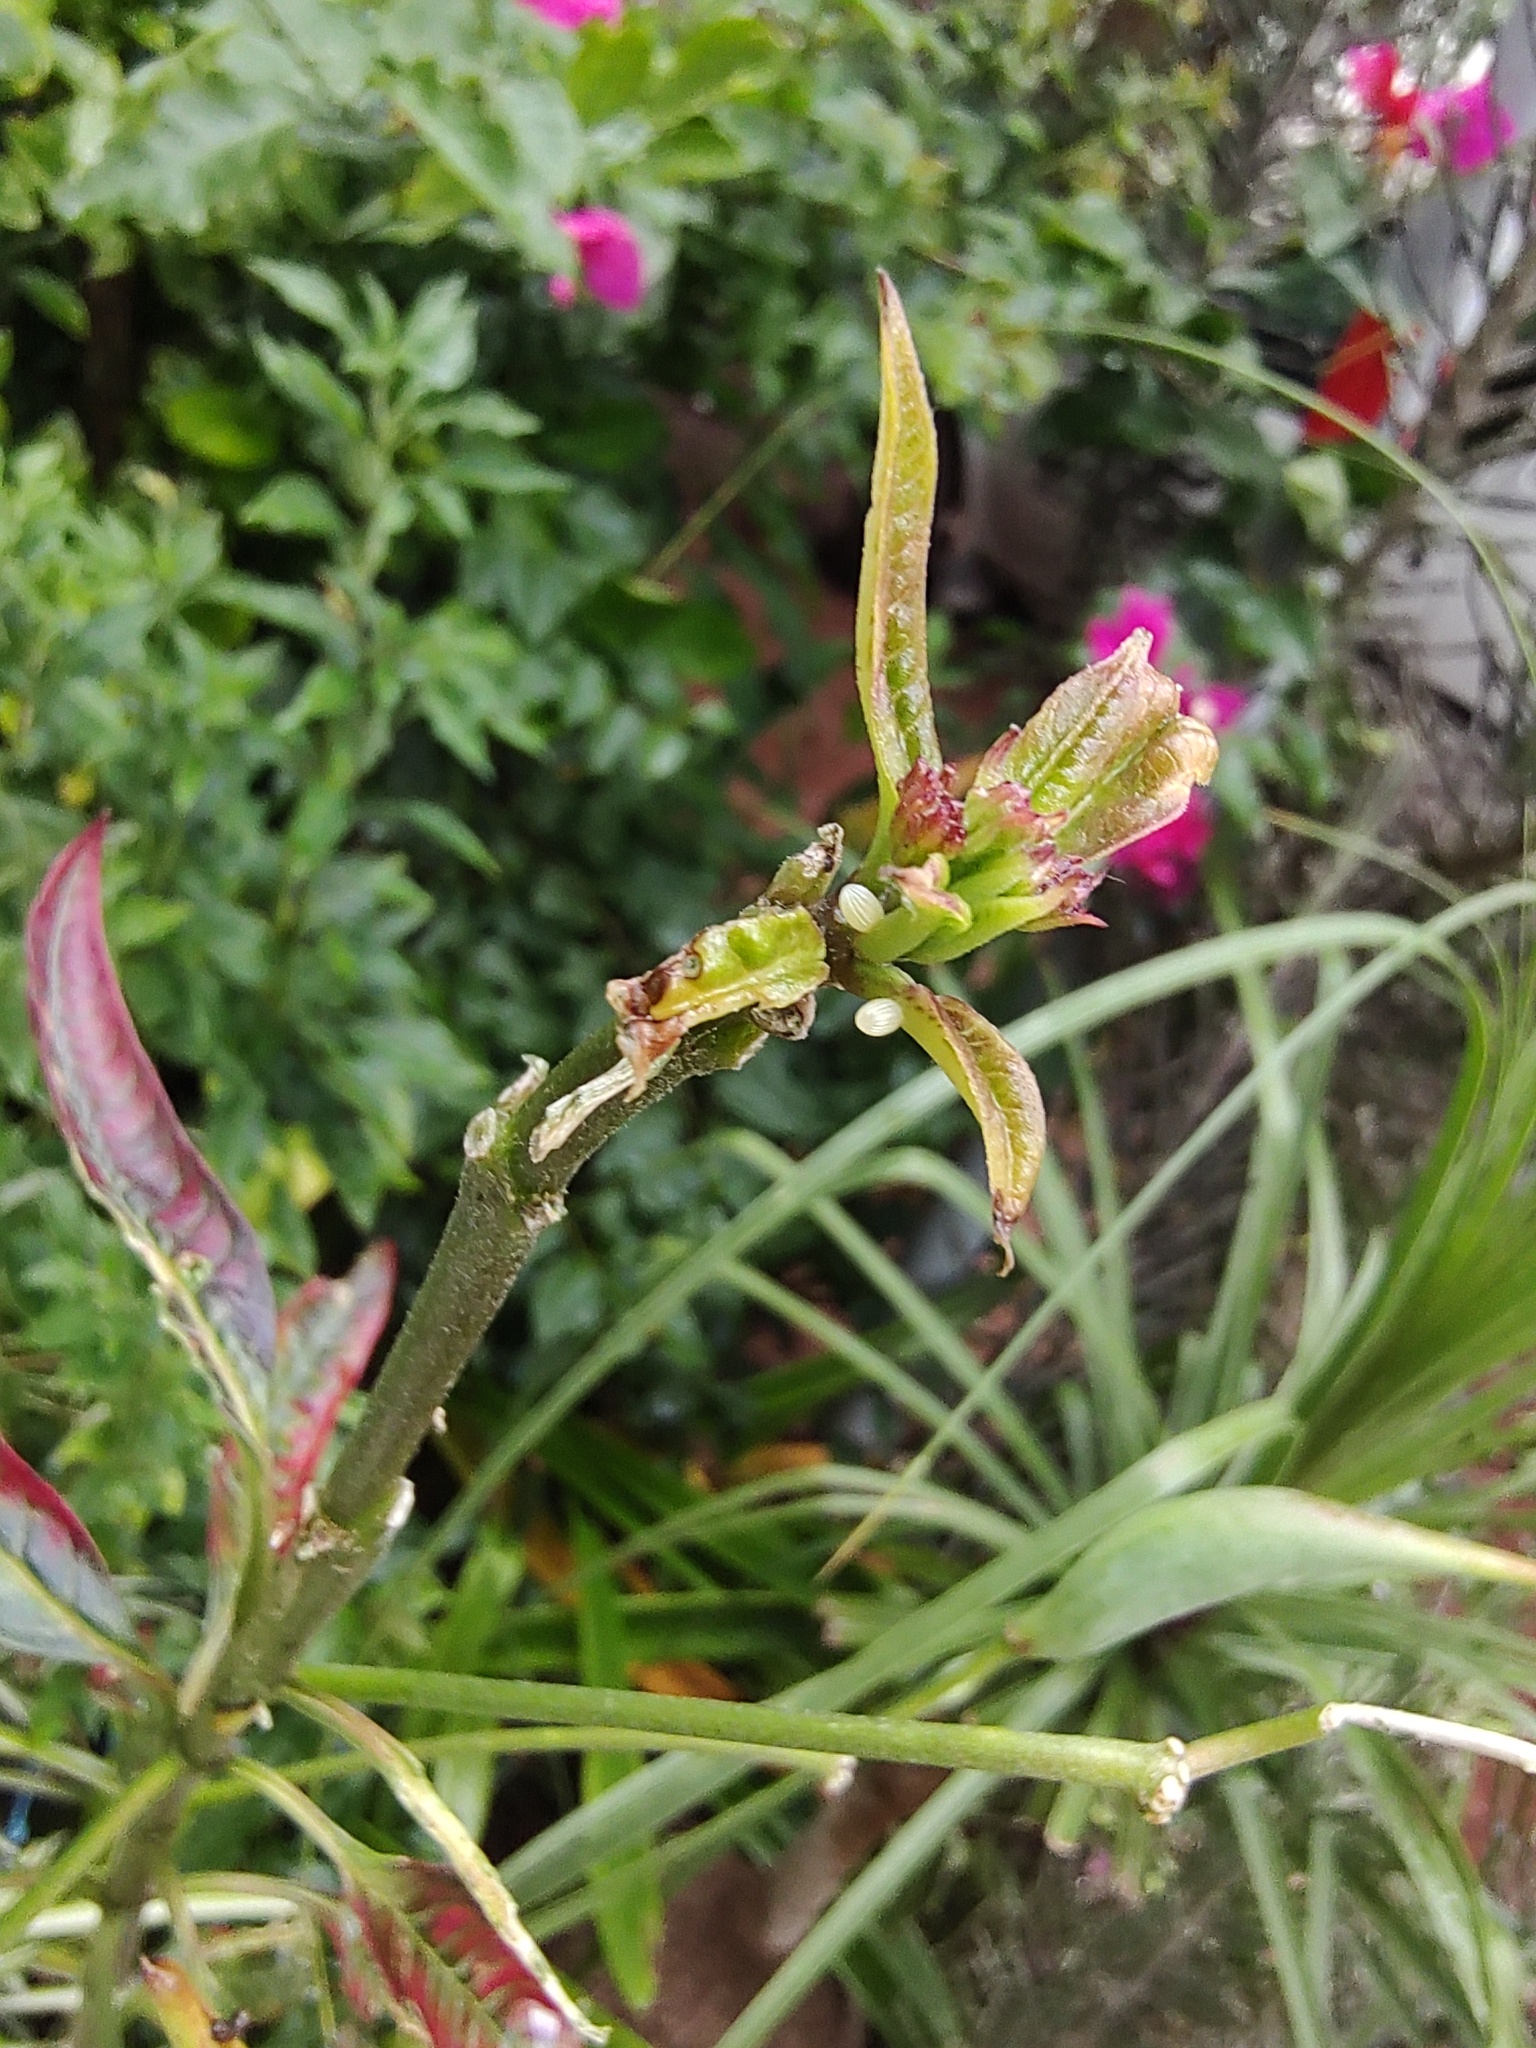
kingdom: Animalia
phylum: Arthropoda
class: Insecta
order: Lepidoptera
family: Nymphalidae
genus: Danaus
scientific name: Danaus plexippus
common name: Monarch
